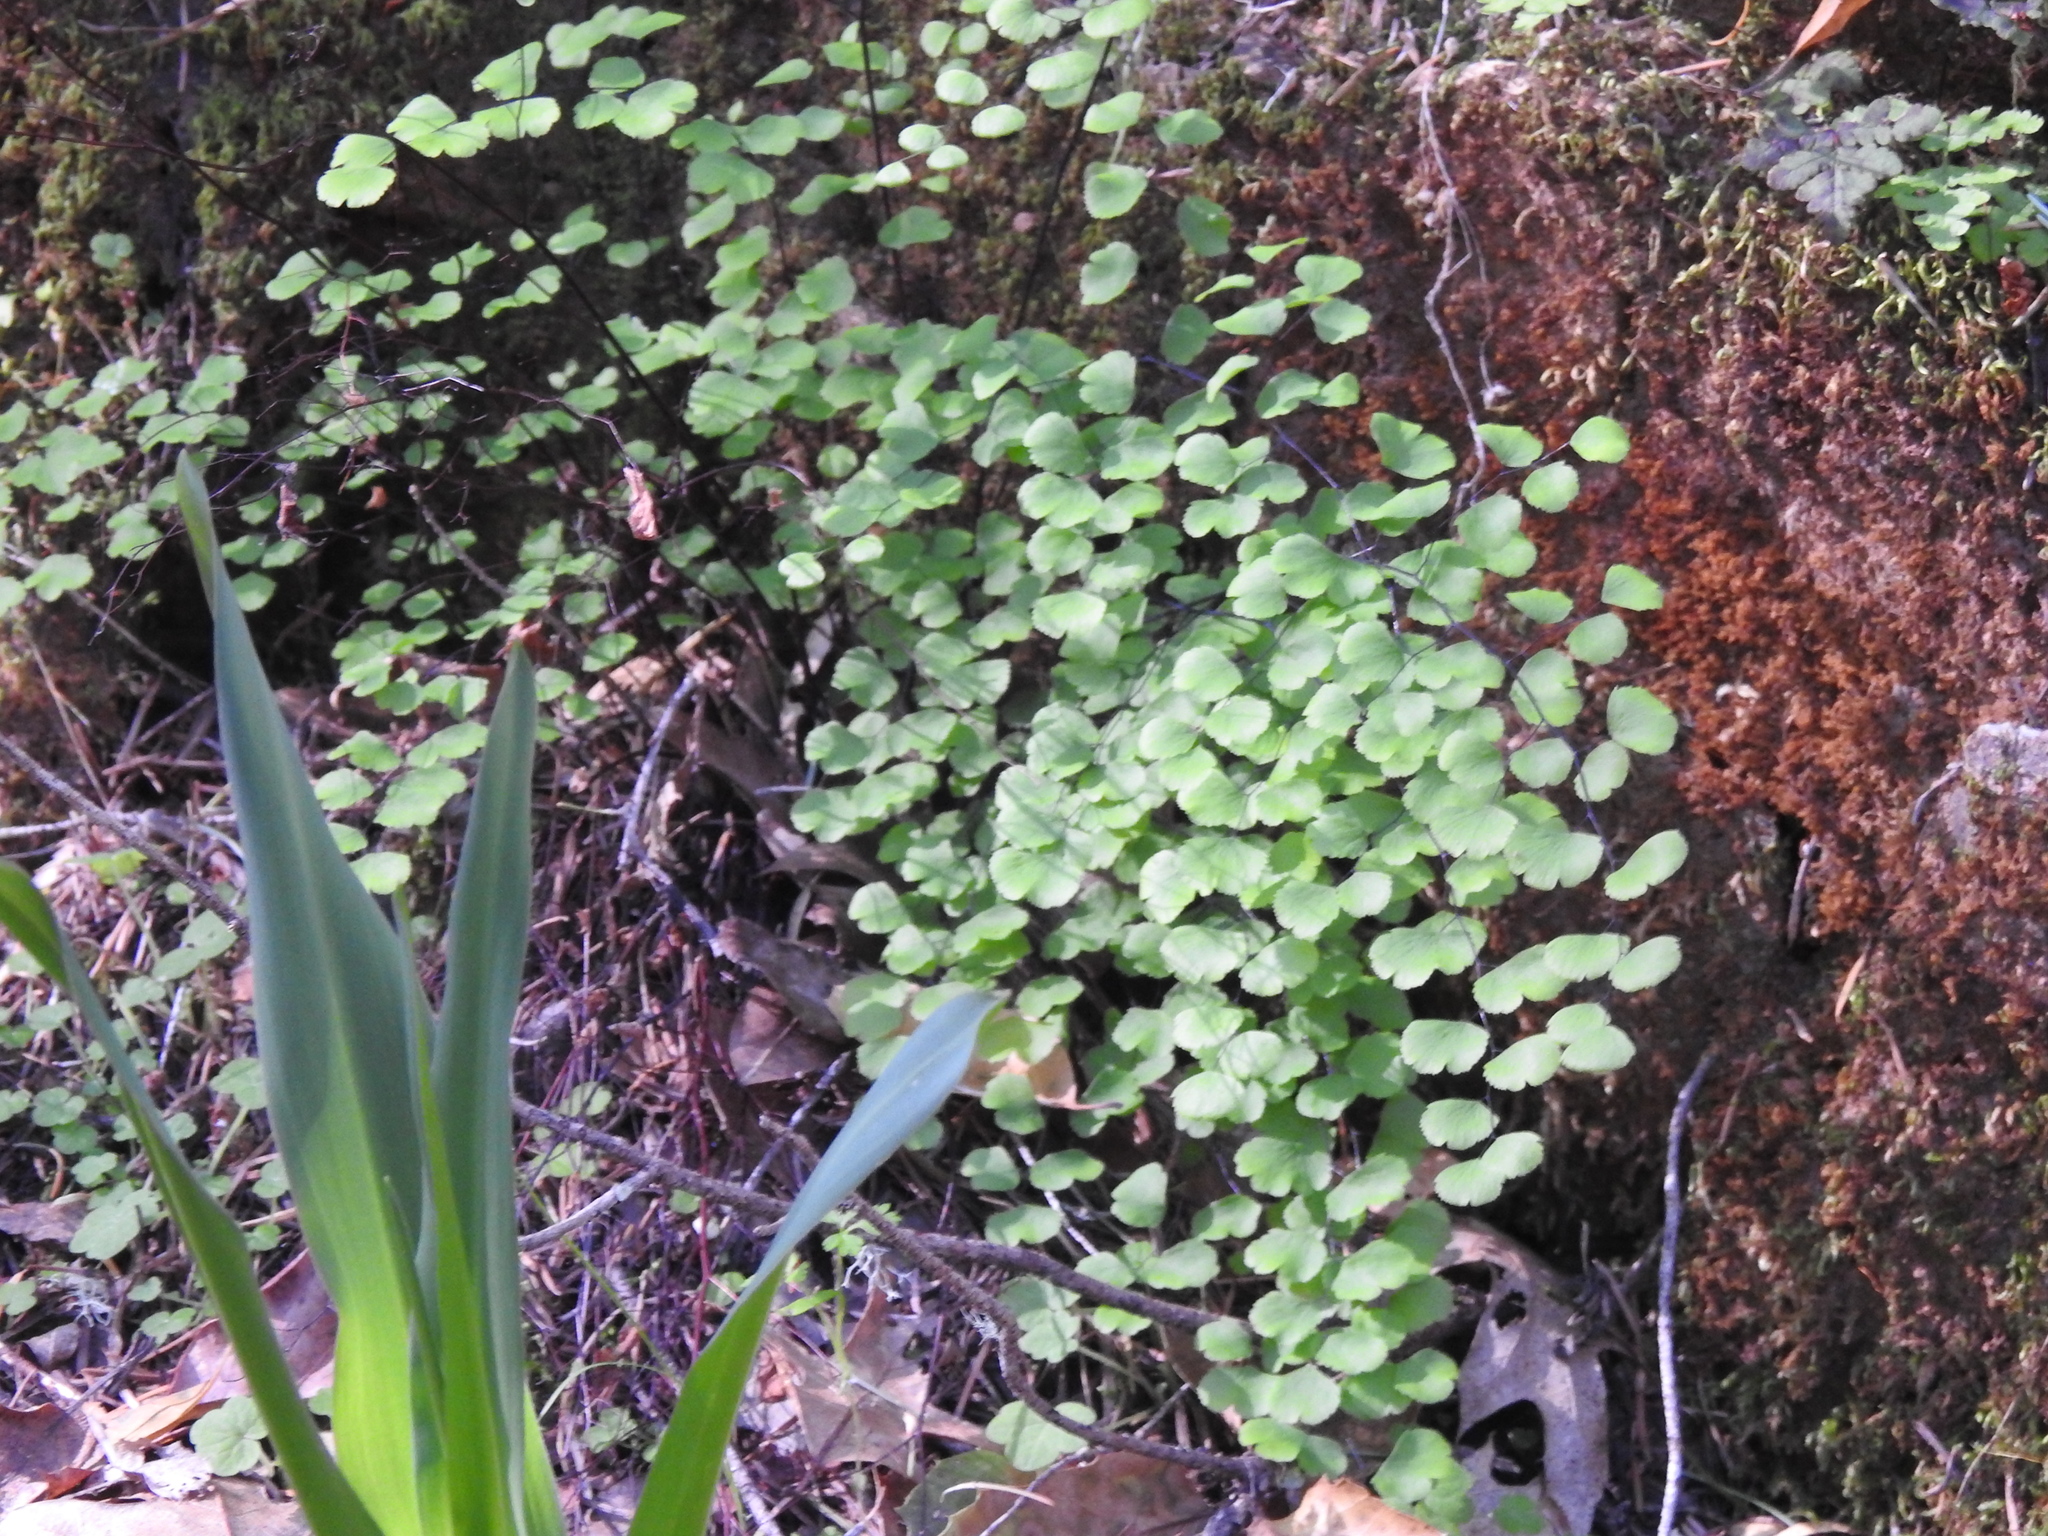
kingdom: Plantae
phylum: Tracheophyta
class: Polypodiopsida
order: Polypodiales
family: Pteridaceae
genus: Adiantum
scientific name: Adiantum jordanii
